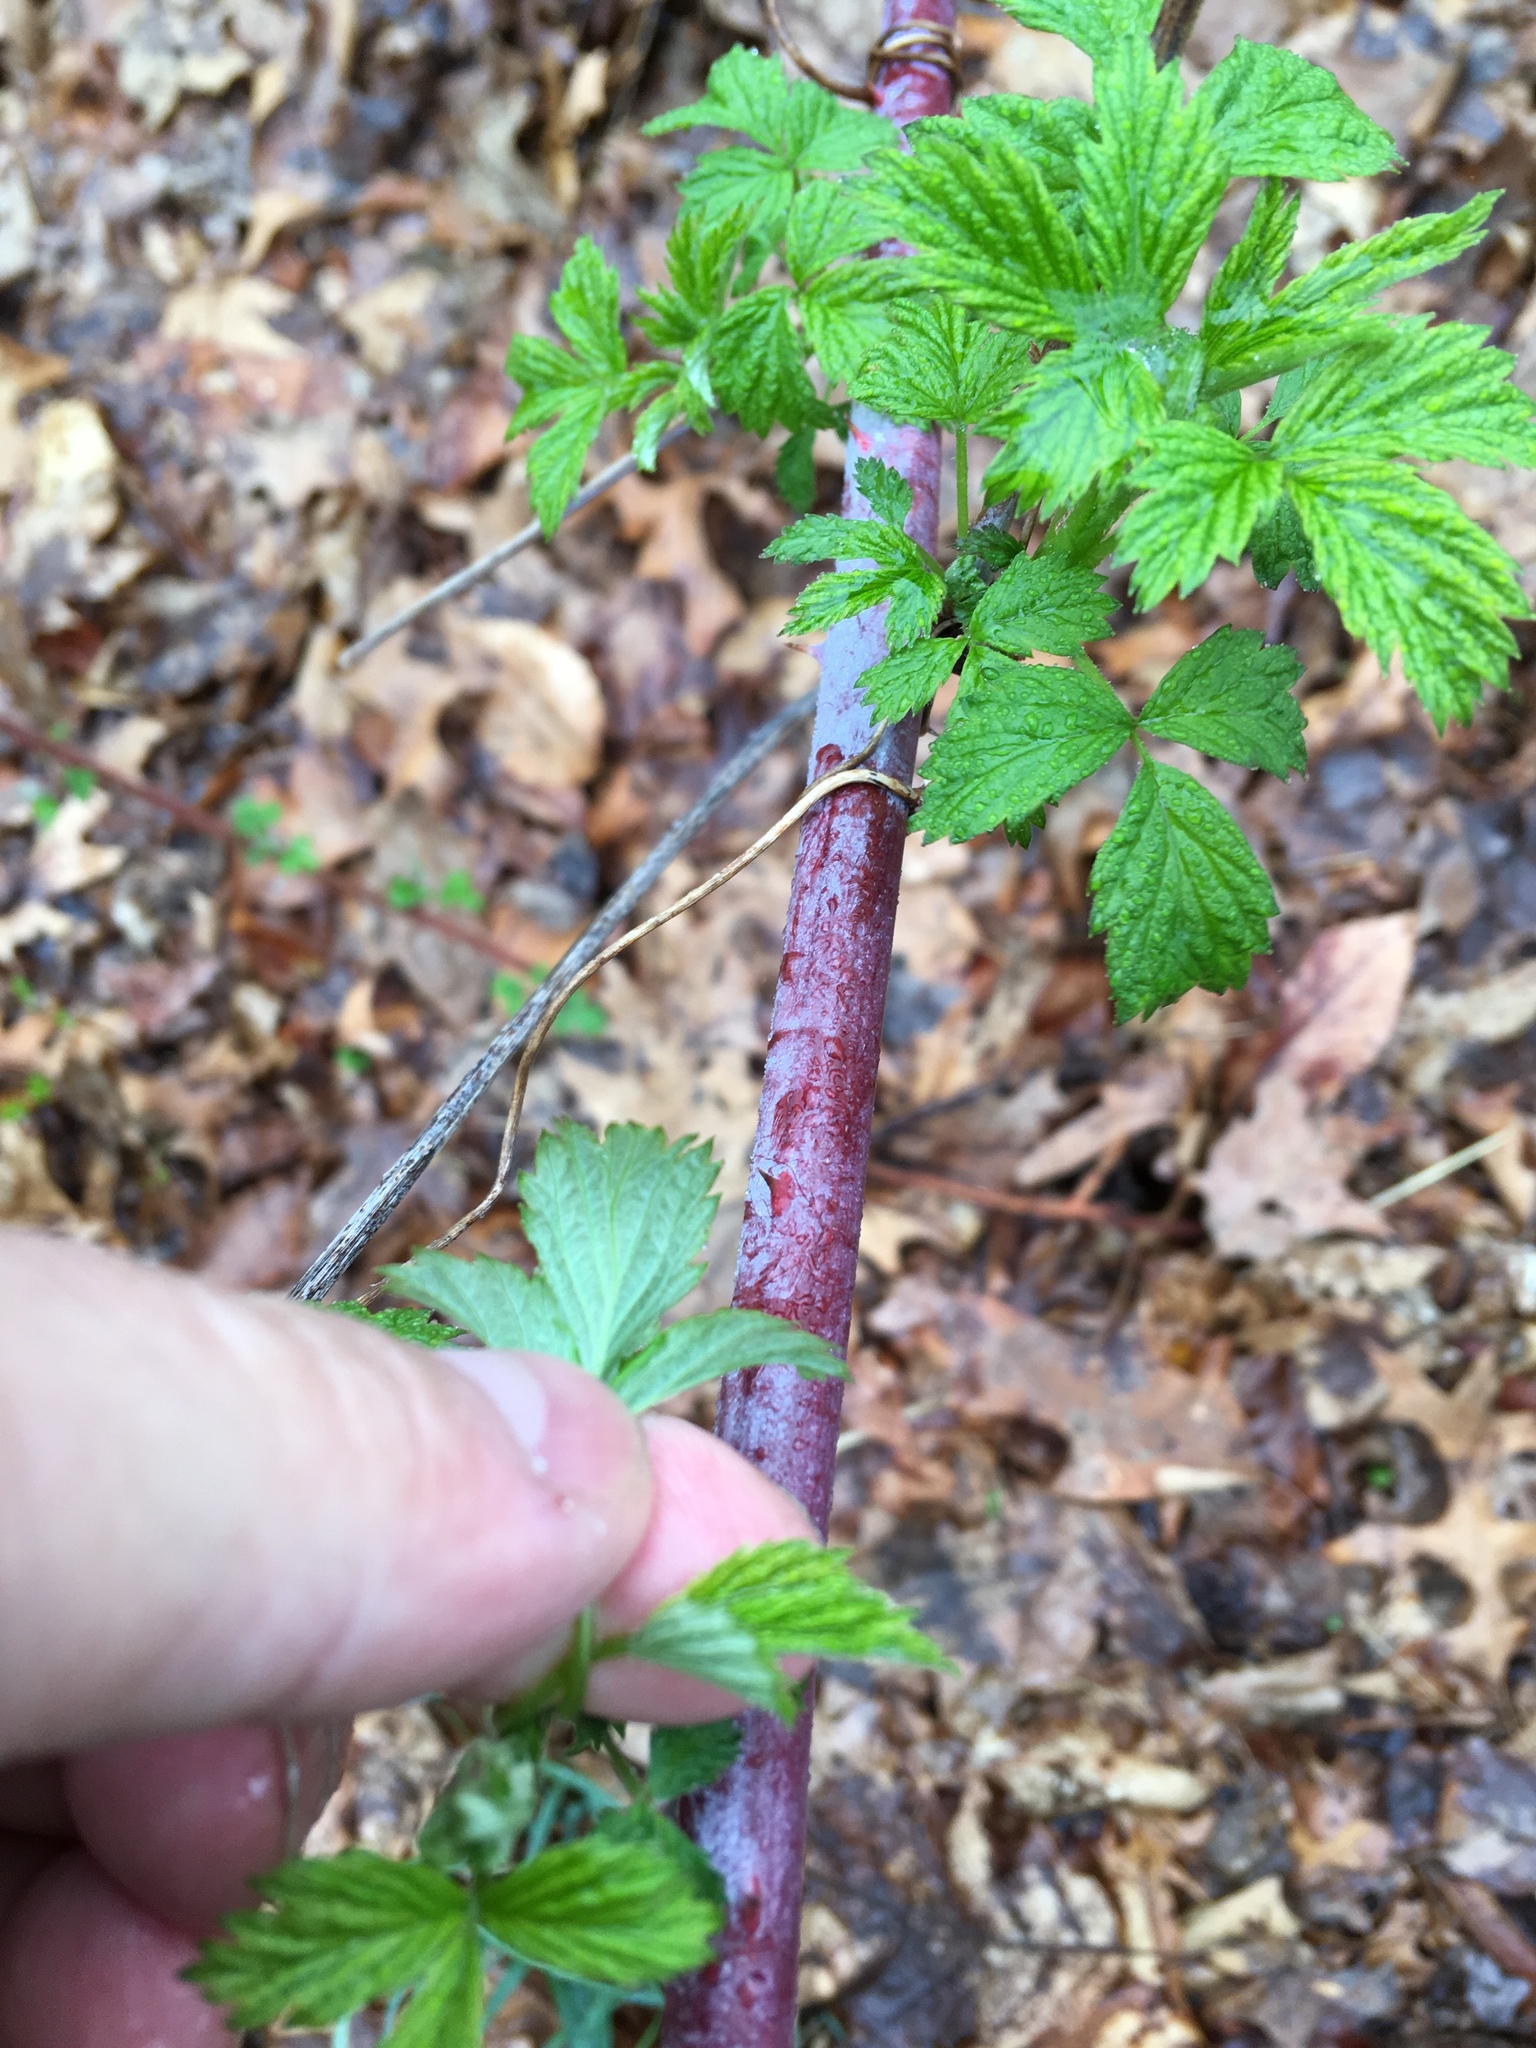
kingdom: Plantae
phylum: Tracheophyta
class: Magnoliopsida
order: Rosales
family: Rosaceae
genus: Rubus
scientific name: Rubus occidentalis
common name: Black raspberry
